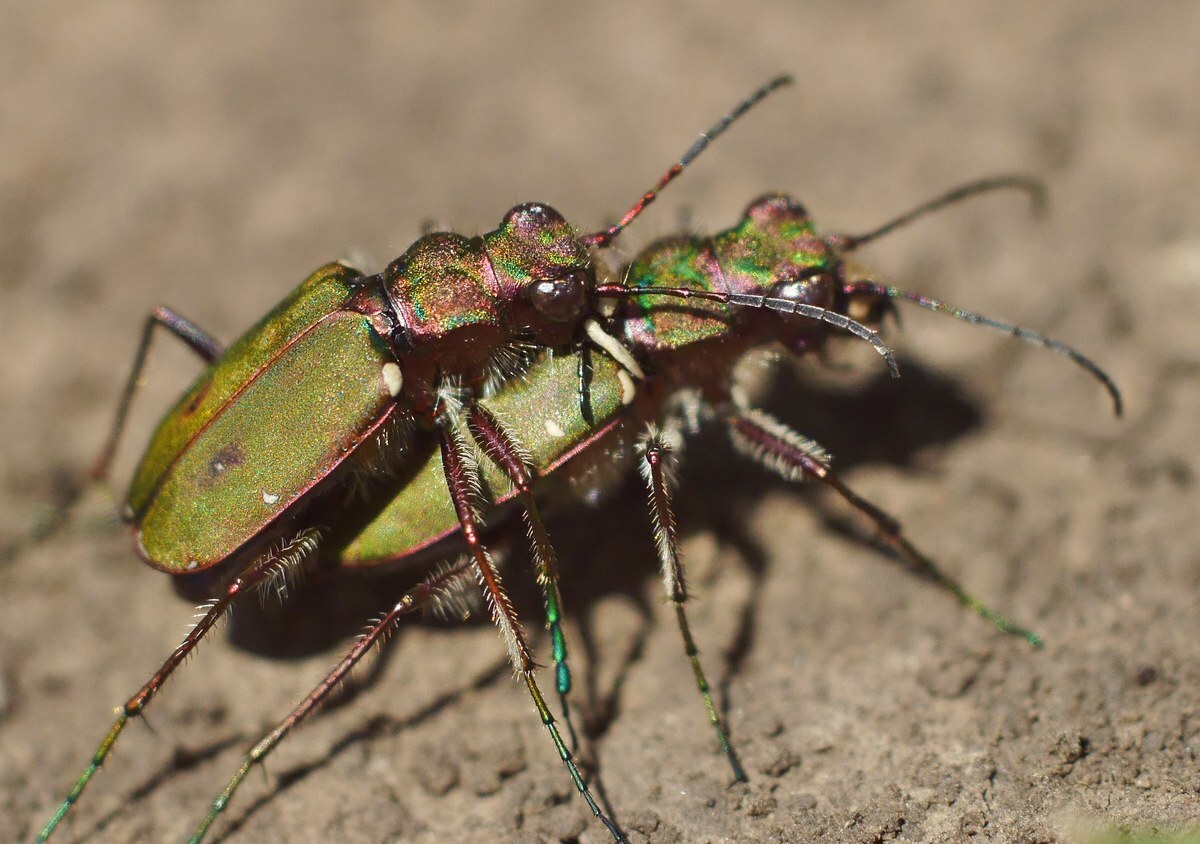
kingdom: Animalia
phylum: Arthropoda
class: Insecta
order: Coleoptera
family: Carabidae
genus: Cicindela
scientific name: Cicindela campestris
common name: Common tiger beetle
